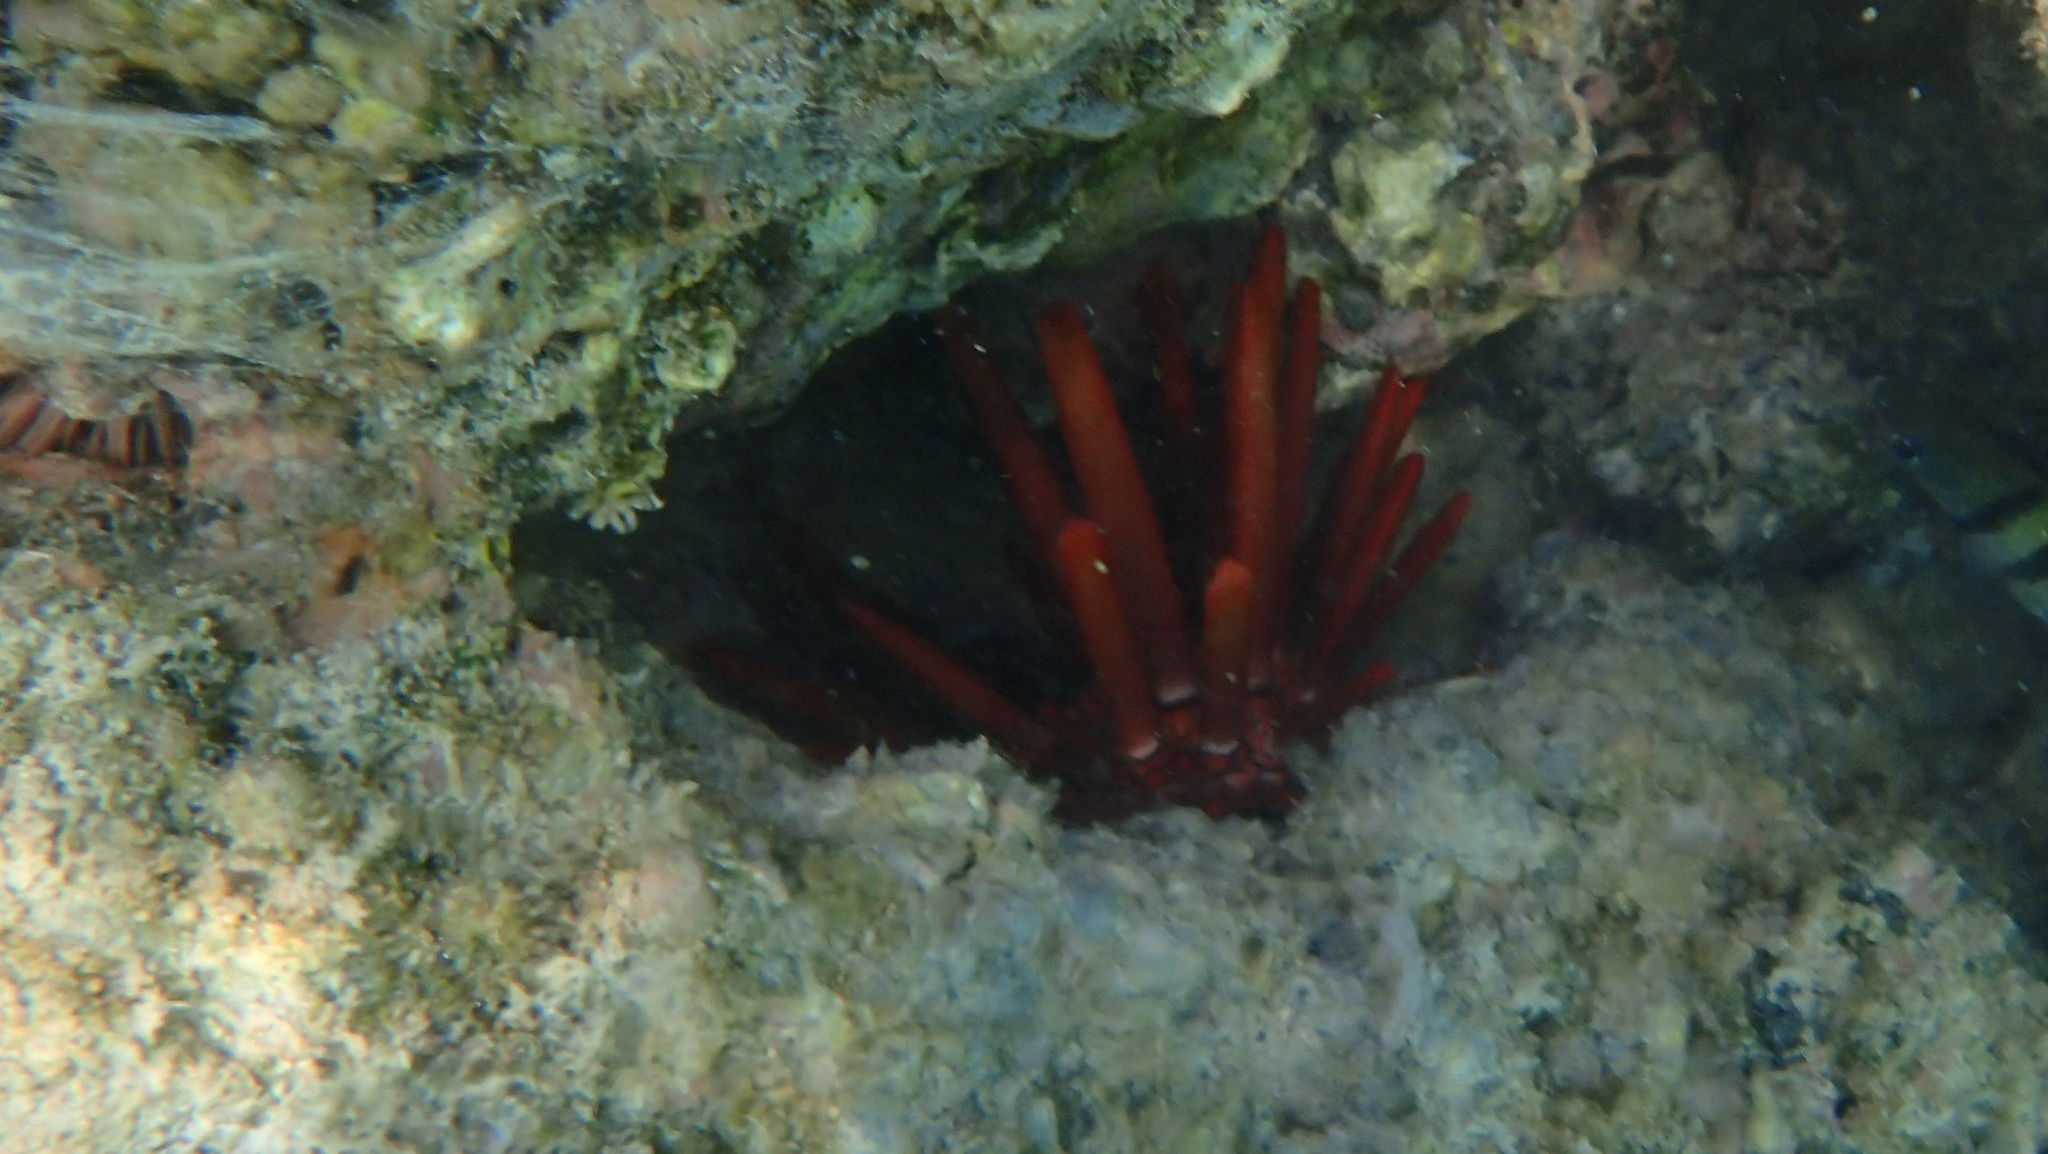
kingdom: Animalia
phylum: Echinodermata
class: Echinoidea
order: Camarodonta
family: Echinometridae
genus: Heterocentrotus
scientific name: Heterocentrotus mamillatus
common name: Slate pencil urchin
